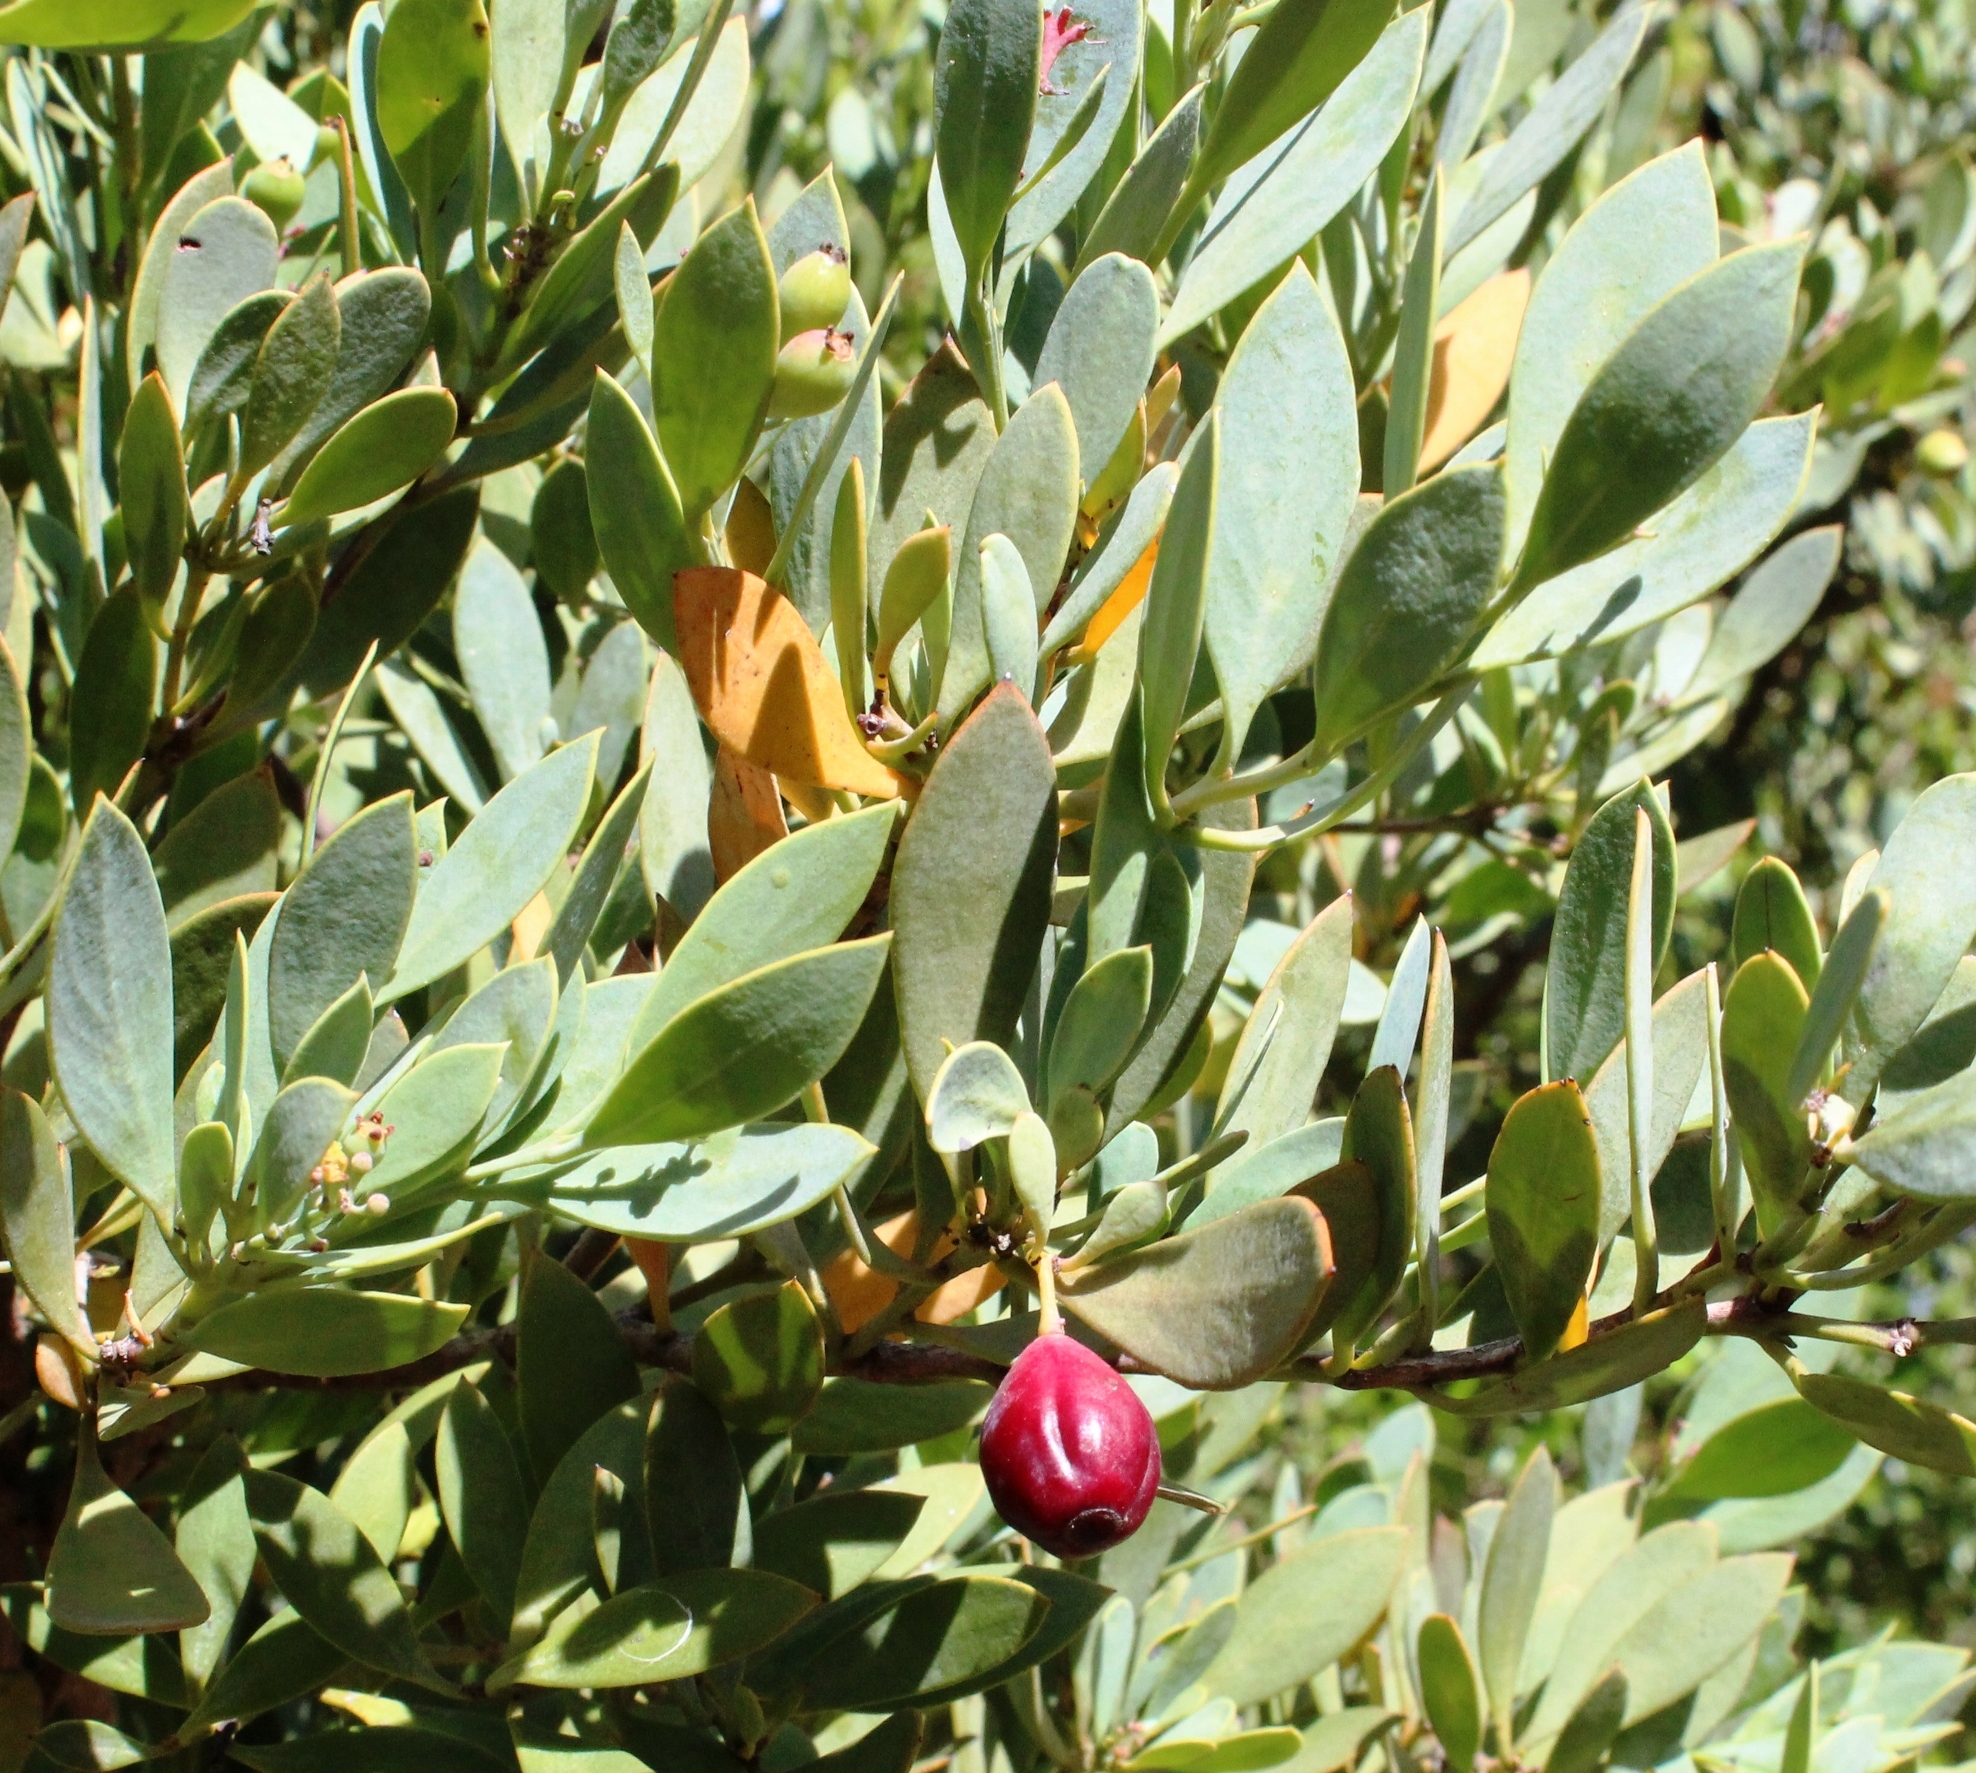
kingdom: Plantae
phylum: Tracheophyta
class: Magnoliopsida
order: Santalales
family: Santalaceae
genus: Osyris
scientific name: Osyris compressa
